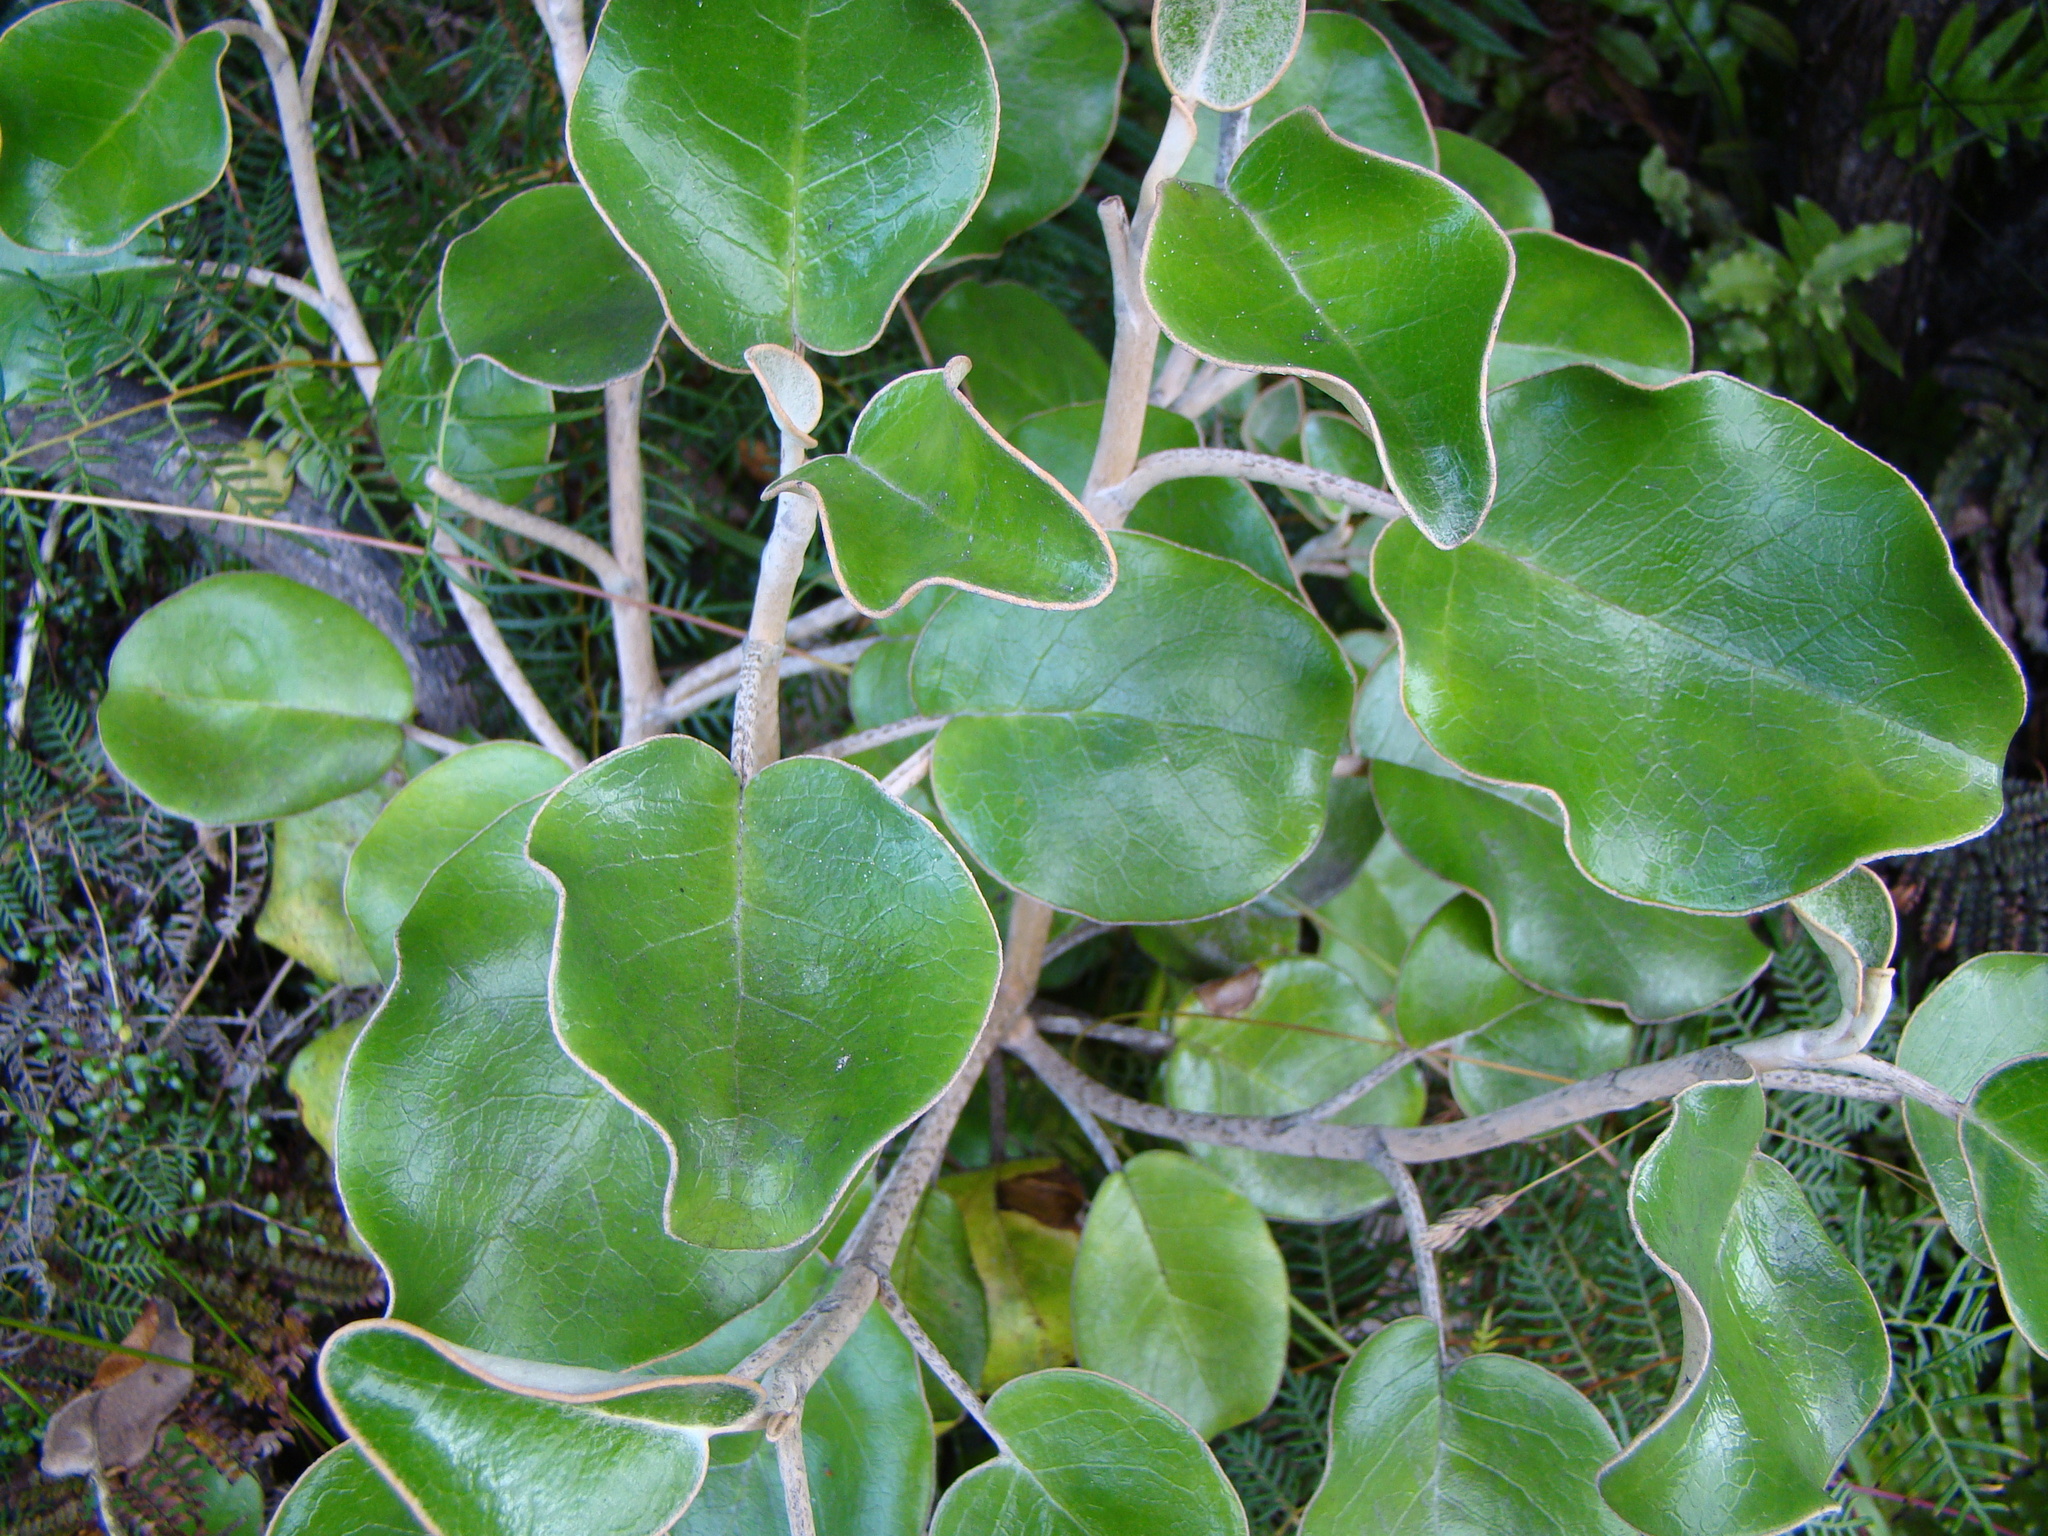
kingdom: Plantae
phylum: Tracheophyta
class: Magnoliopsida
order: Asterales
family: Asteraceae
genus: Brachyglottis
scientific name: Brachyglottis rotundifolia
